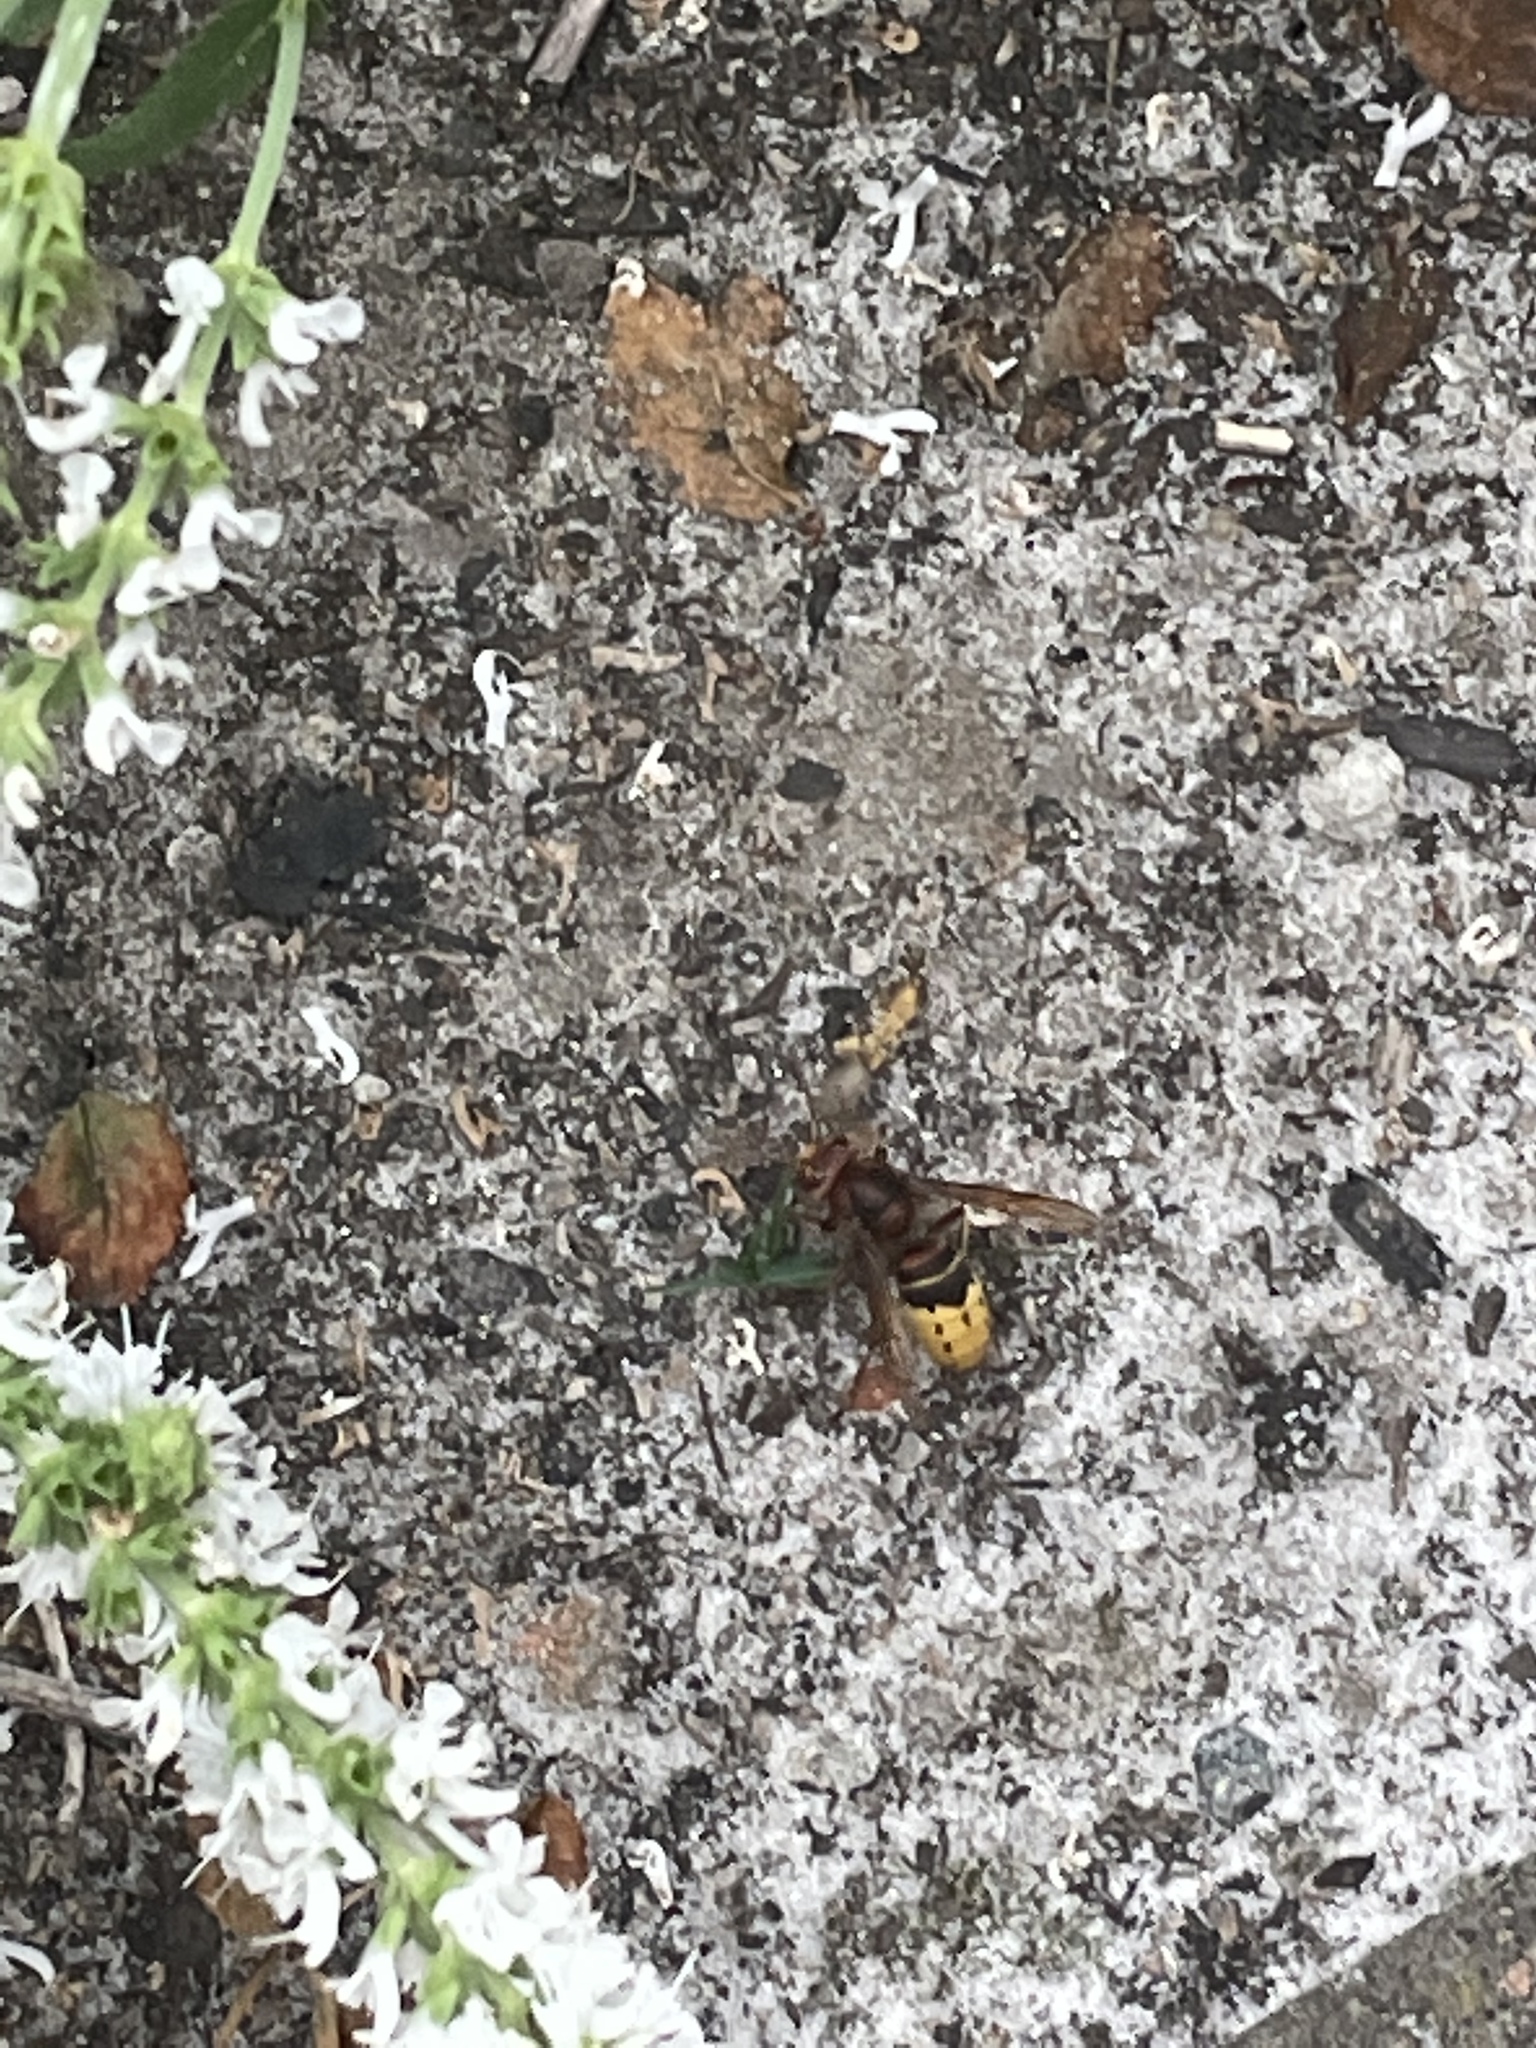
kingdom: Animalia
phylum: Arthropoda
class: Insecta
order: Hymenoptera
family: Vespidae
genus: Vespa
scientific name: Vespa crabro
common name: Hornet
